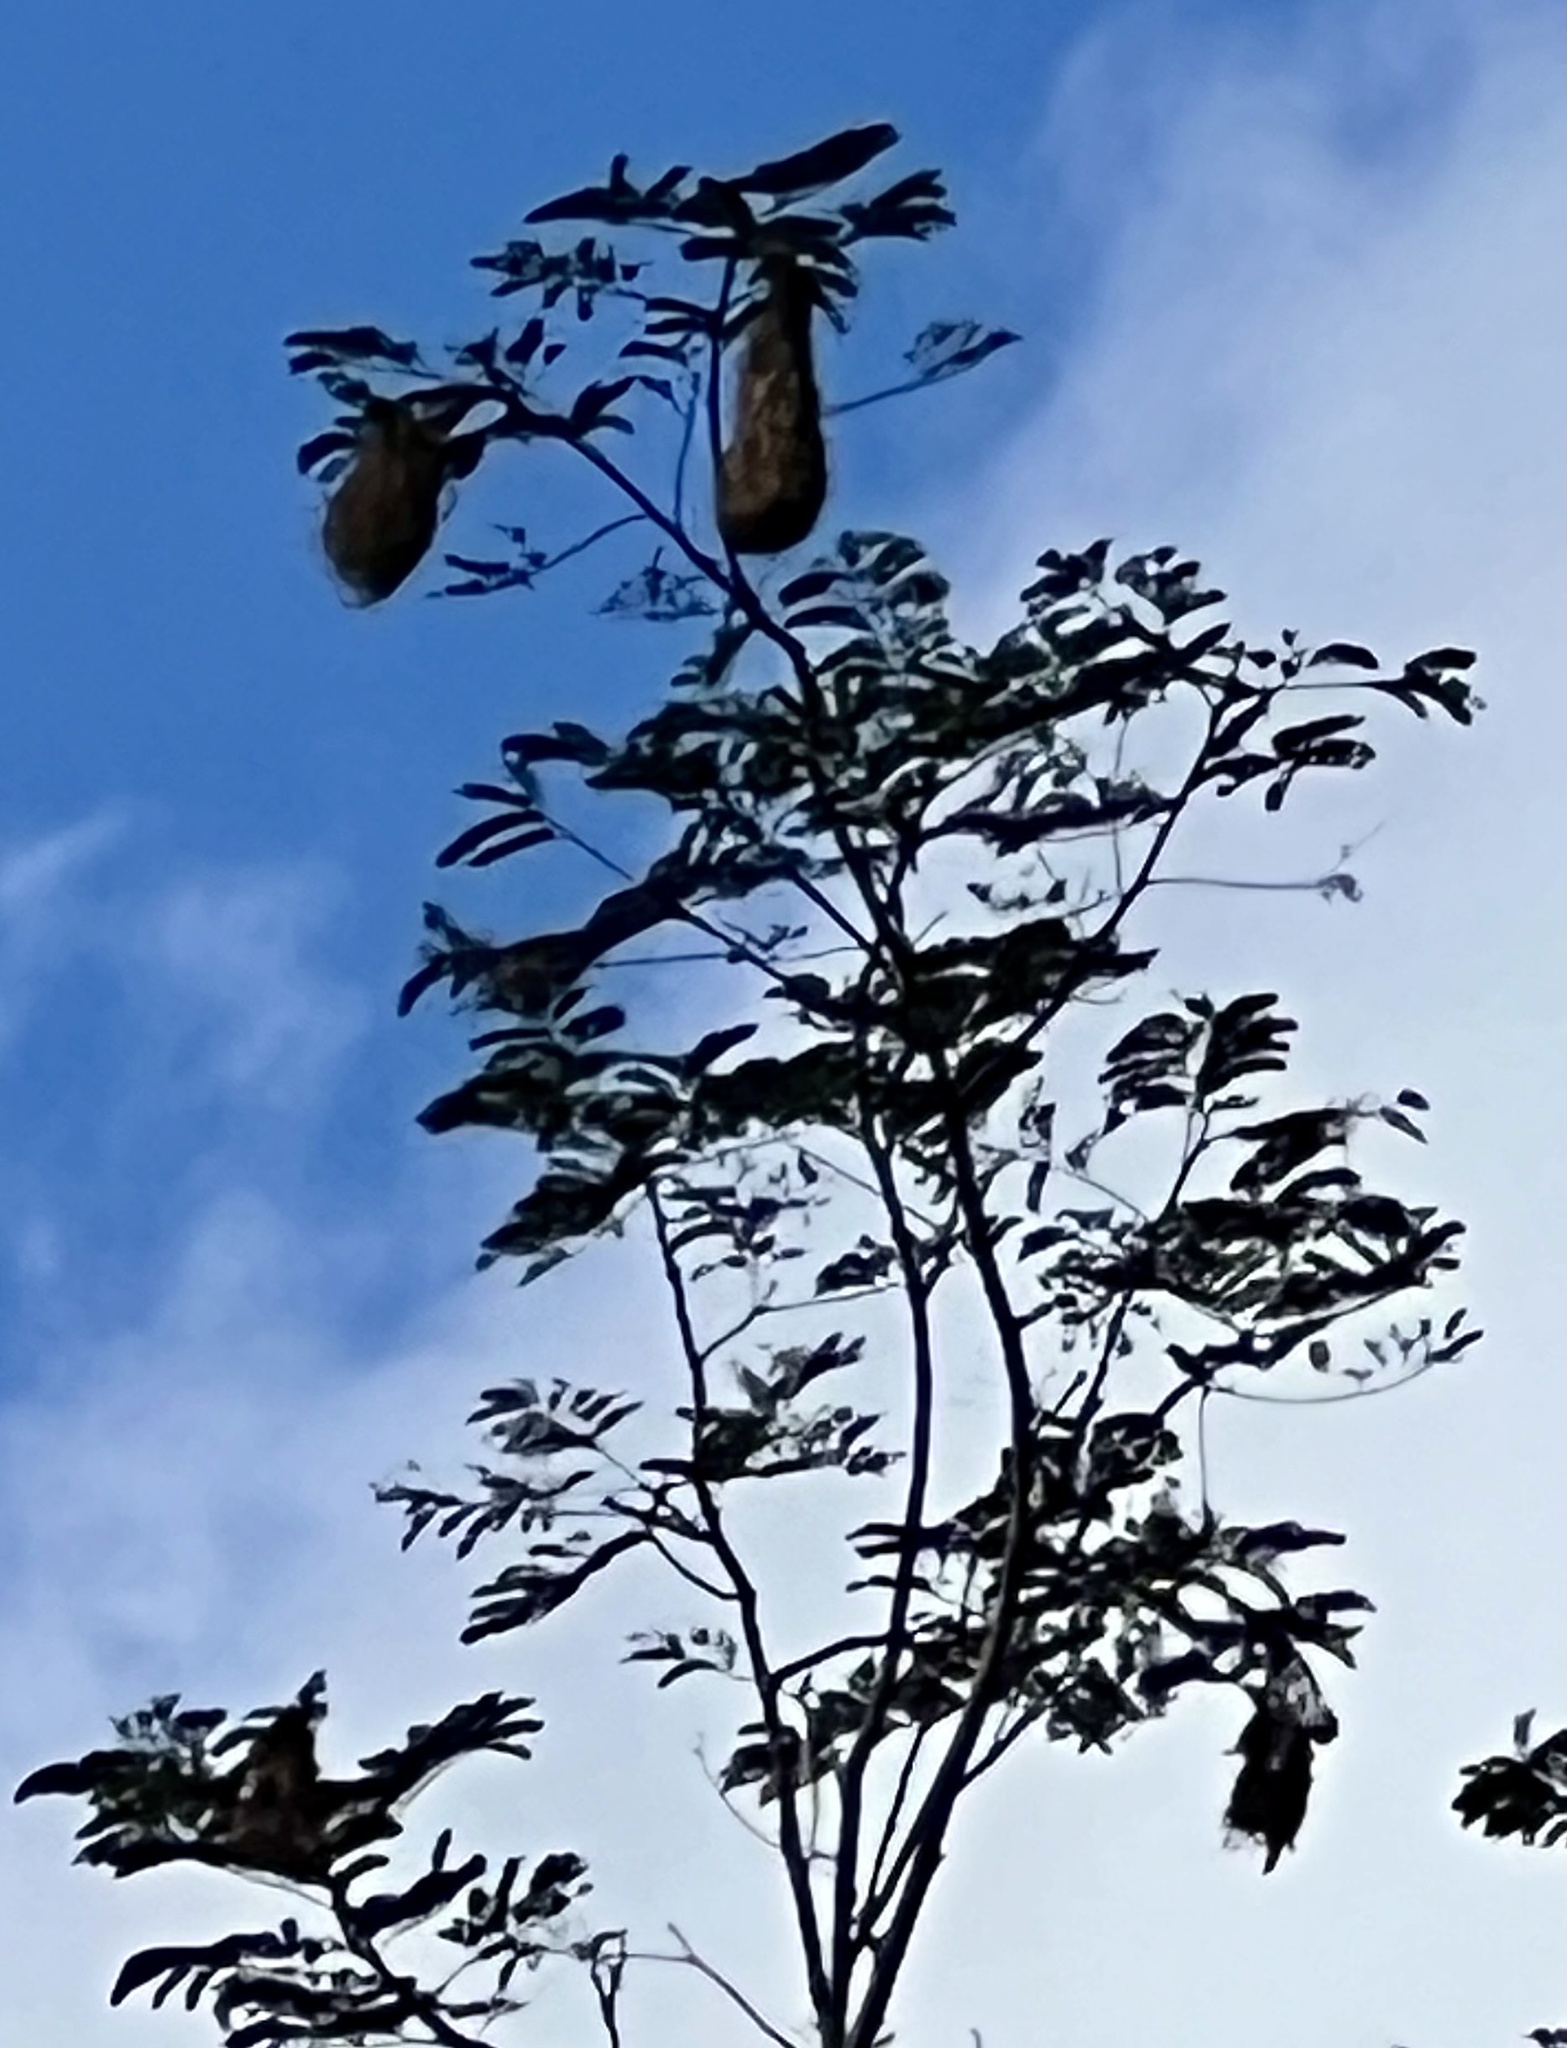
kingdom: Animalia
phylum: Chordata
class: Aves
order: Passeriformes
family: Icteridae
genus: Psarocolius
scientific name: Psarocolius montezuma
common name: Montezuma oropendola
